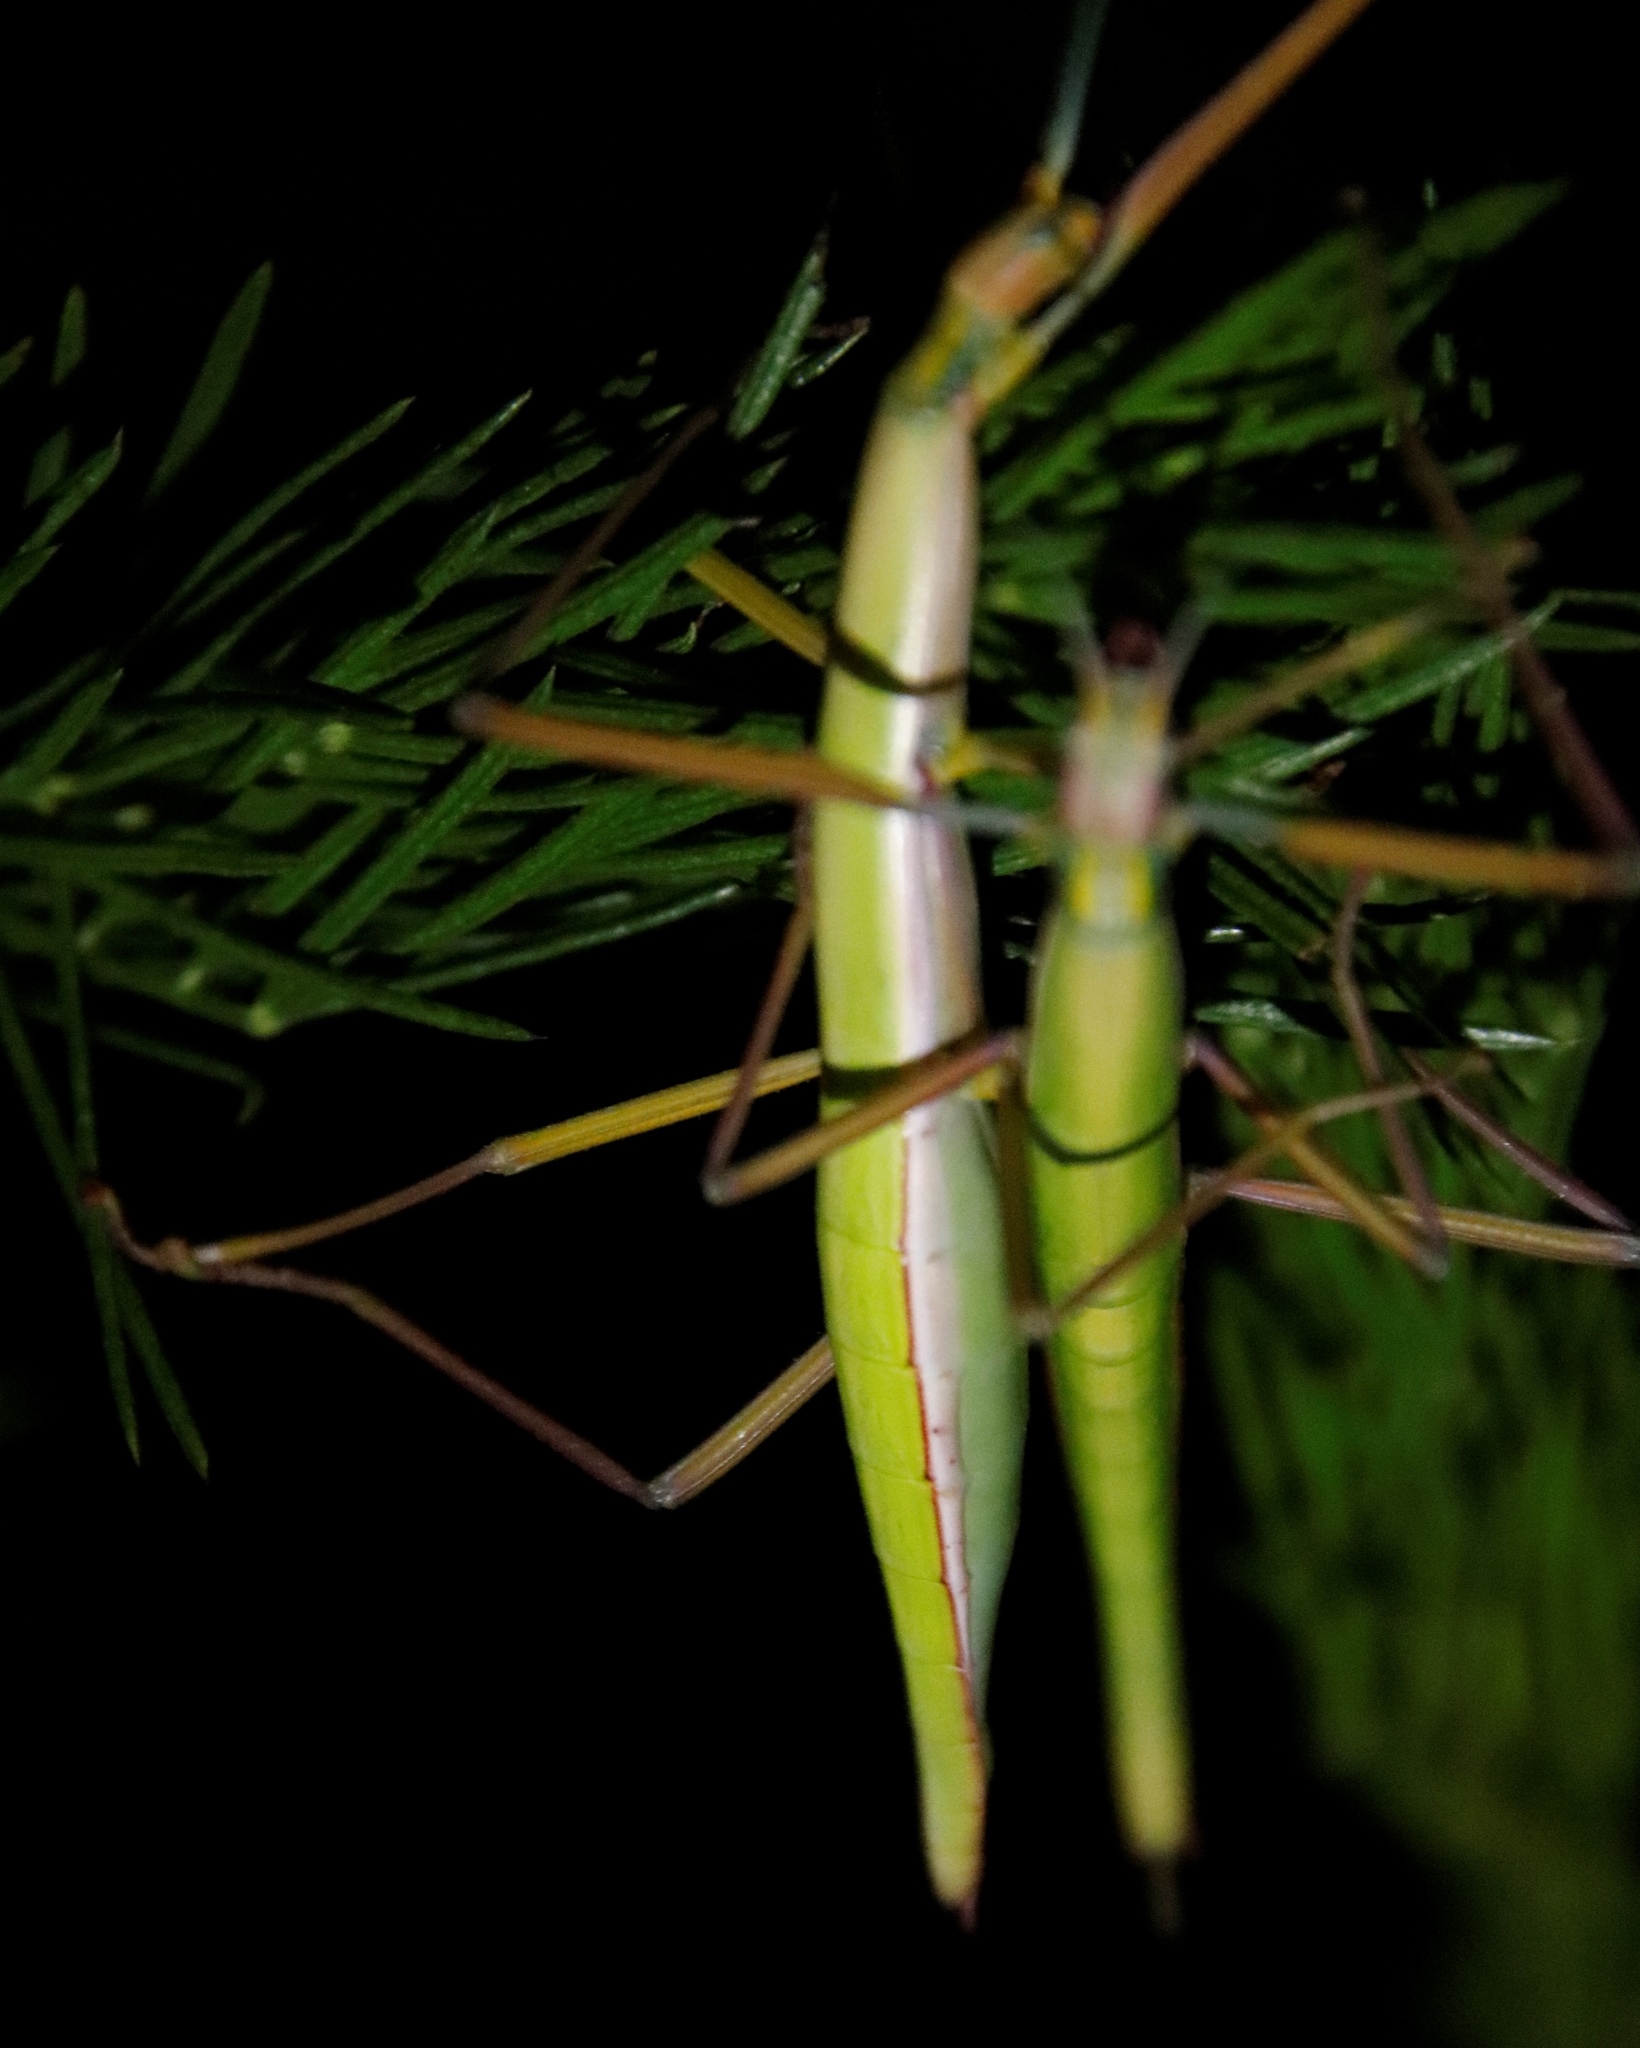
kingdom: Animalia
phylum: Arthropoda
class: Insecta
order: Phasmida
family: Bacillidae
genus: Macynia
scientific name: Macynia labiata
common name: Thunberg's stick insect
